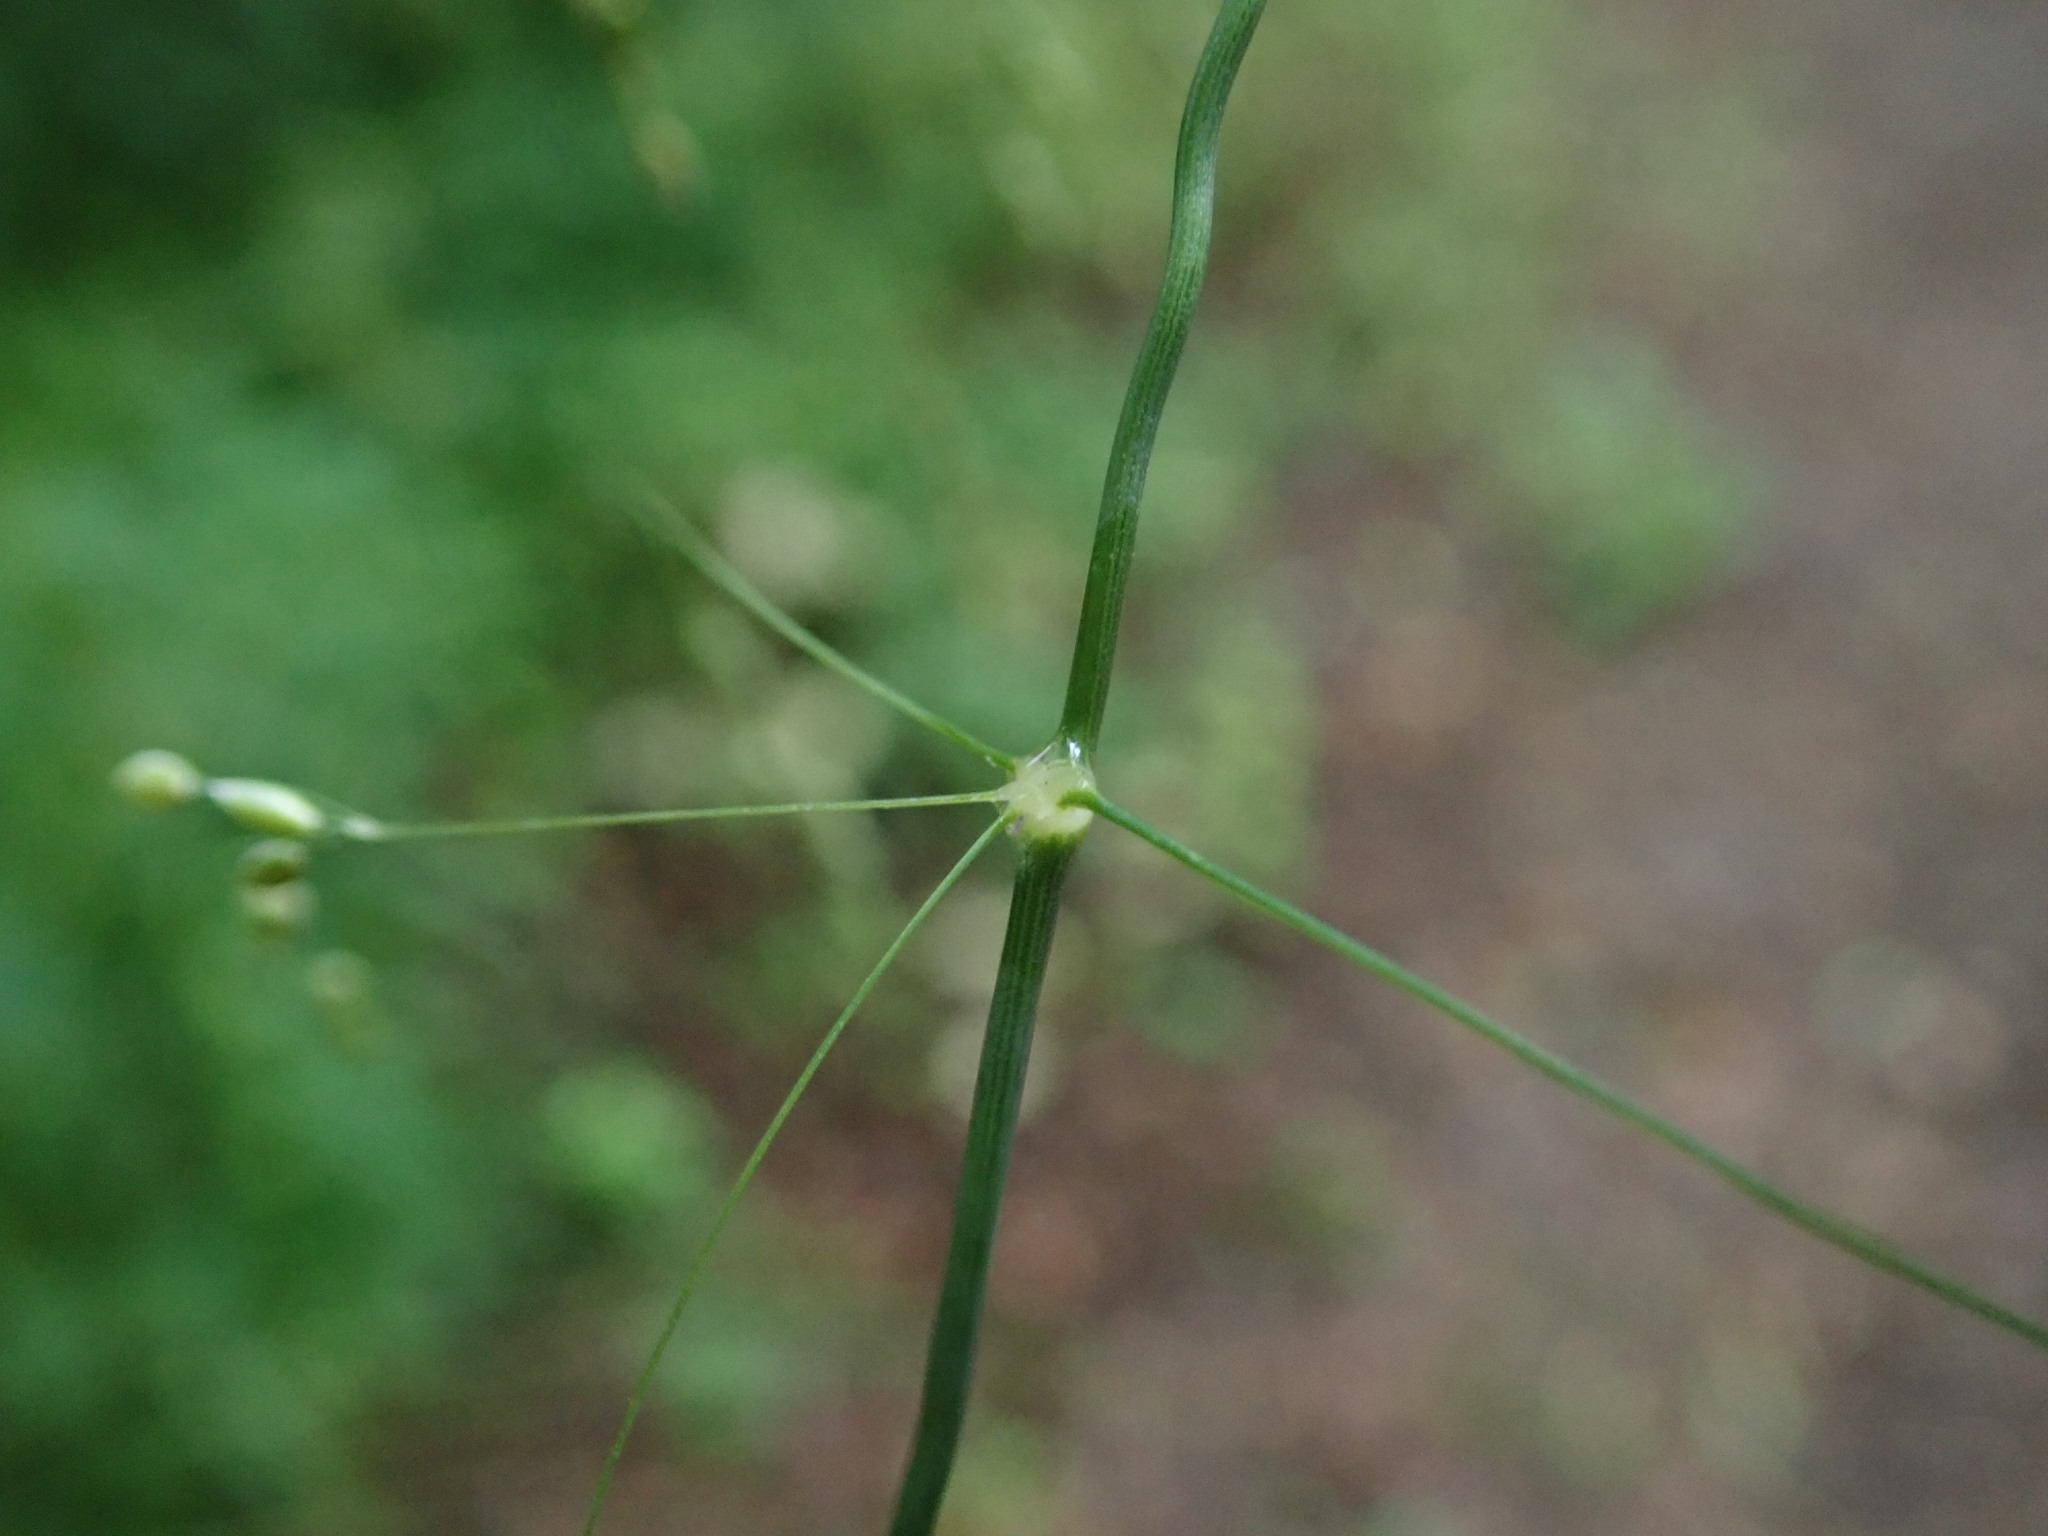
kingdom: Plantae
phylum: Tracheophyta
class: Liliopsida
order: Poales
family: Poaceae
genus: Milium
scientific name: Milium effusum
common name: Wood millet
